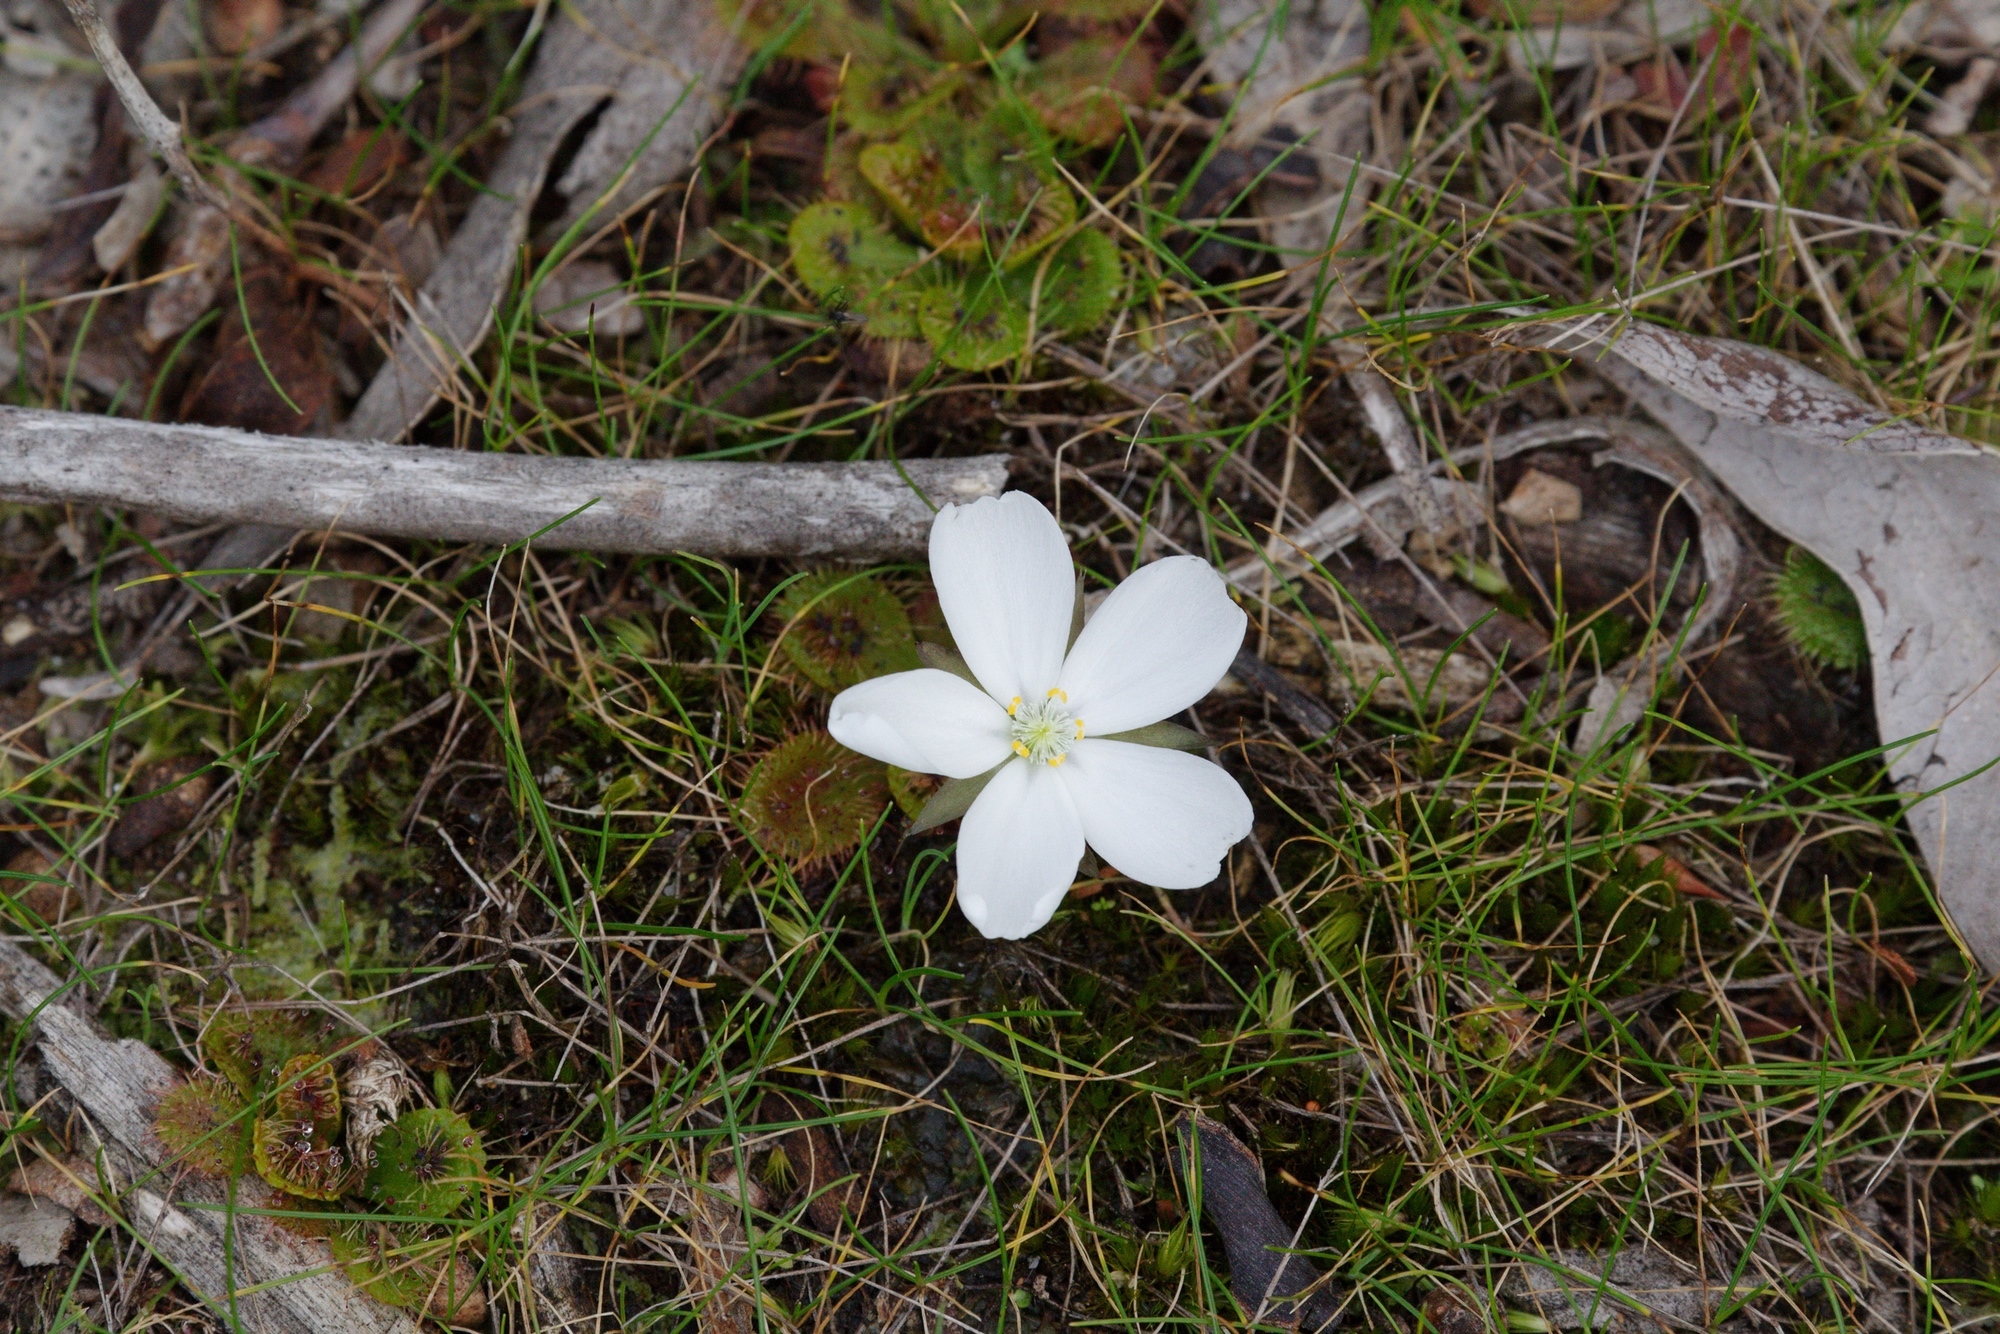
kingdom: Plantae
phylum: Tracheophyta
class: Magnoliopsida
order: Caryophyllales
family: Droseraceae
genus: Drosera
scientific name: Drosera aberrans
